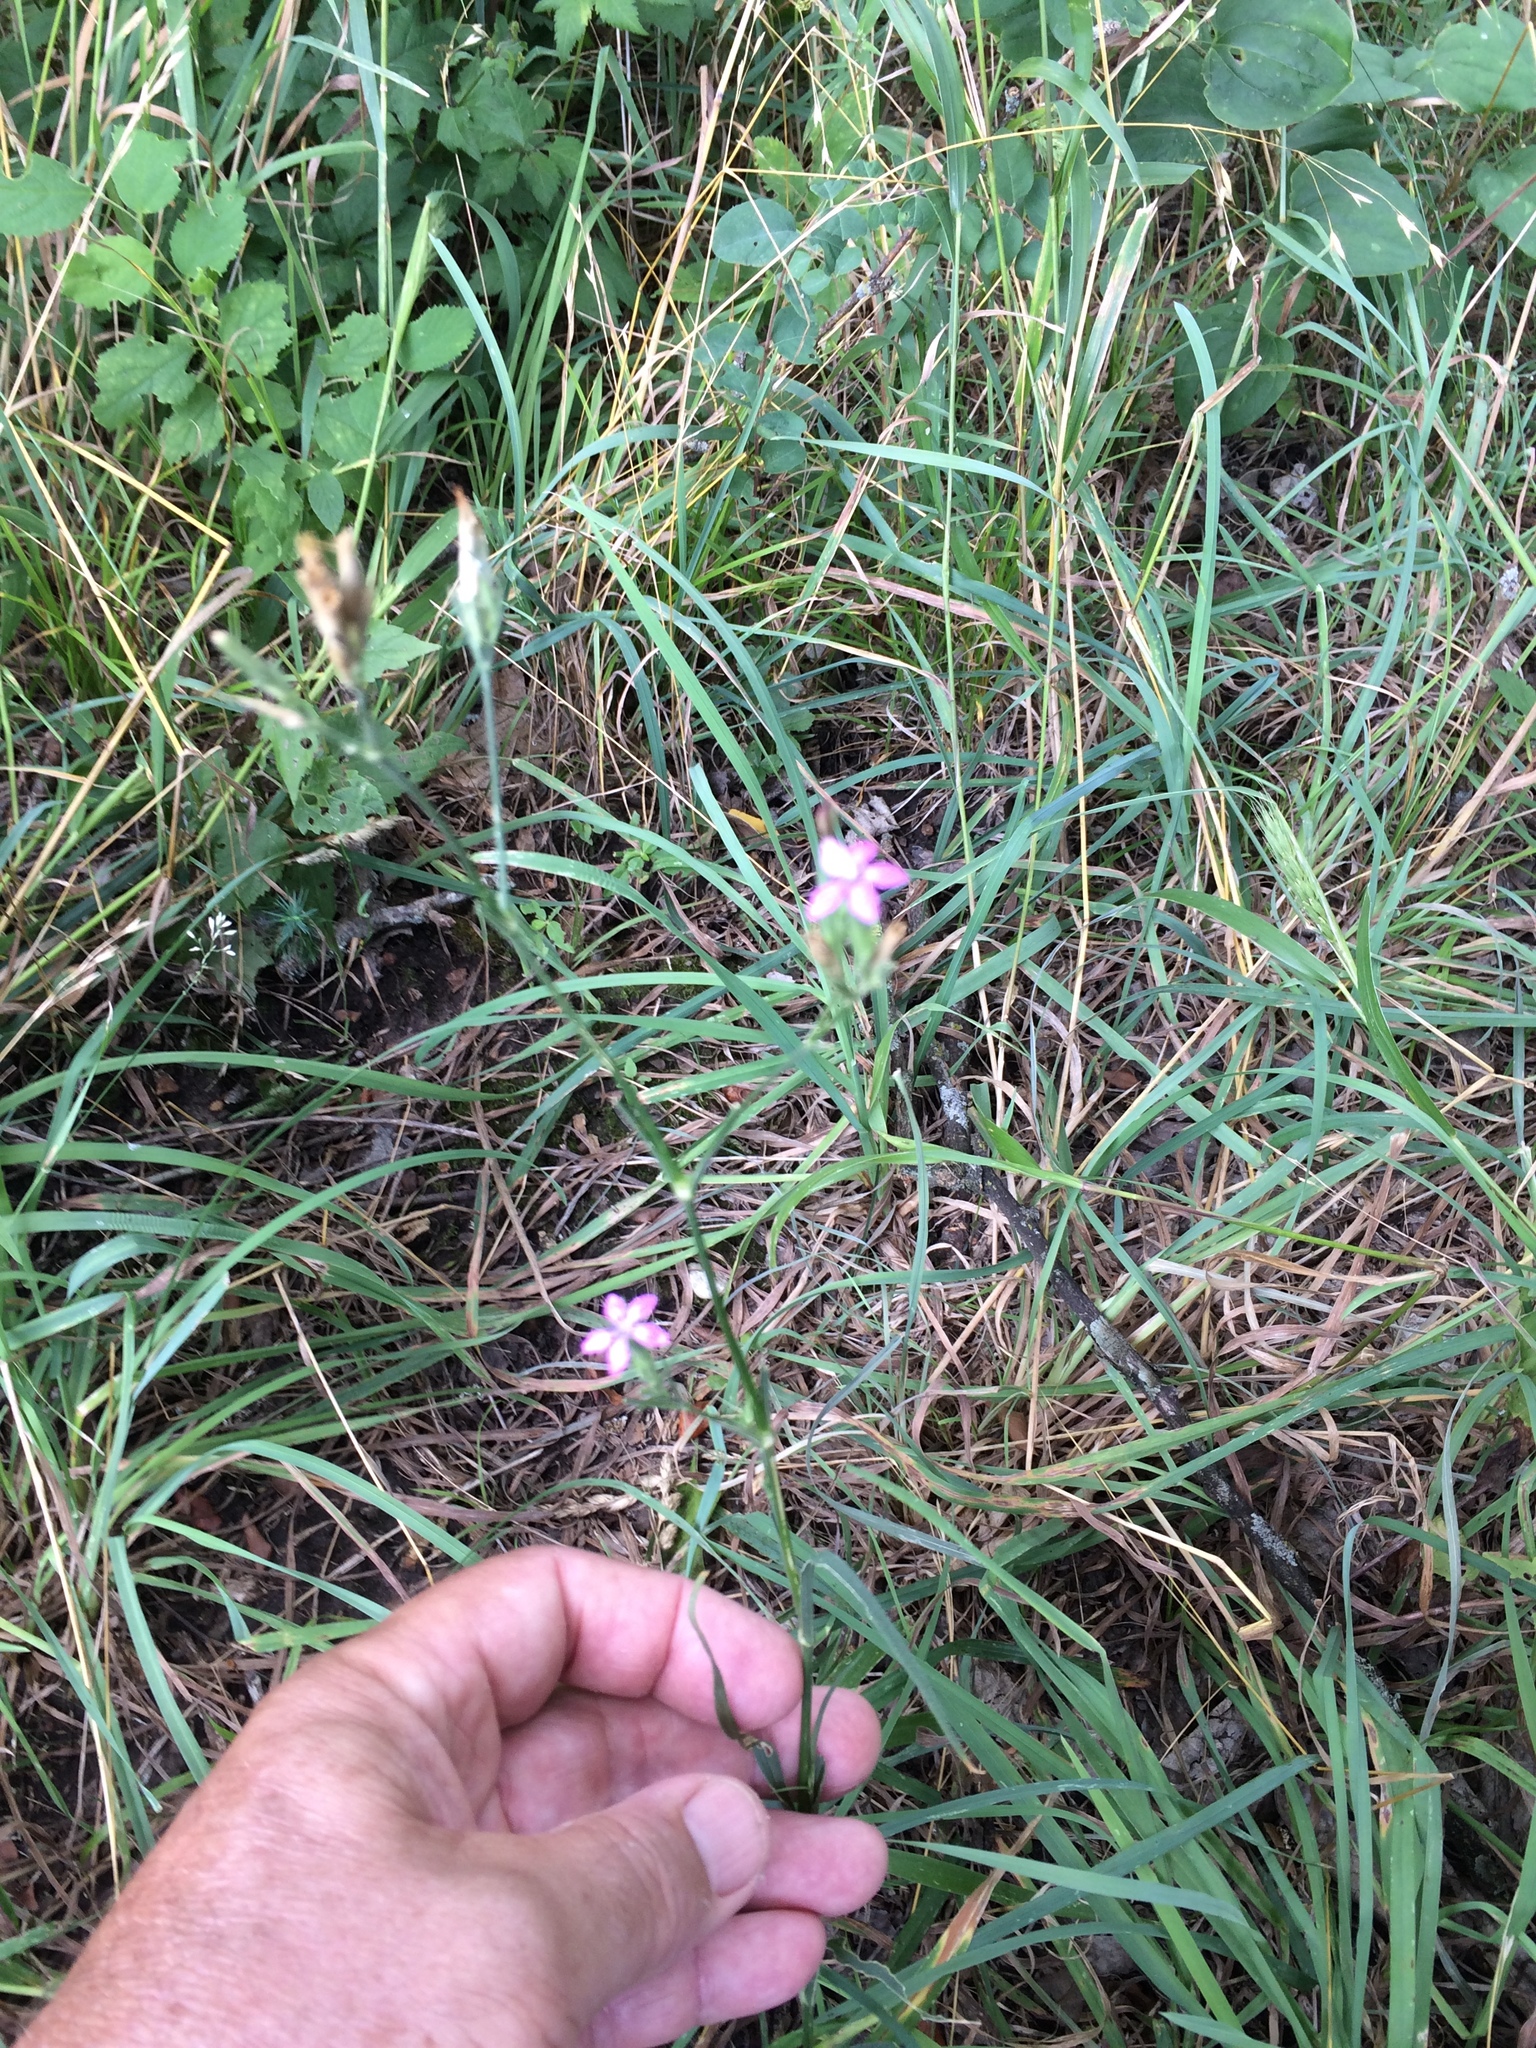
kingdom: Plantae
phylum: Tracheophyta
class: Magnoliopsida
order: Caryophyllales
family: Caryophyllaceae
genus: Dianthus
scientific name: Dianthus armeria
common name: Deptford pink
